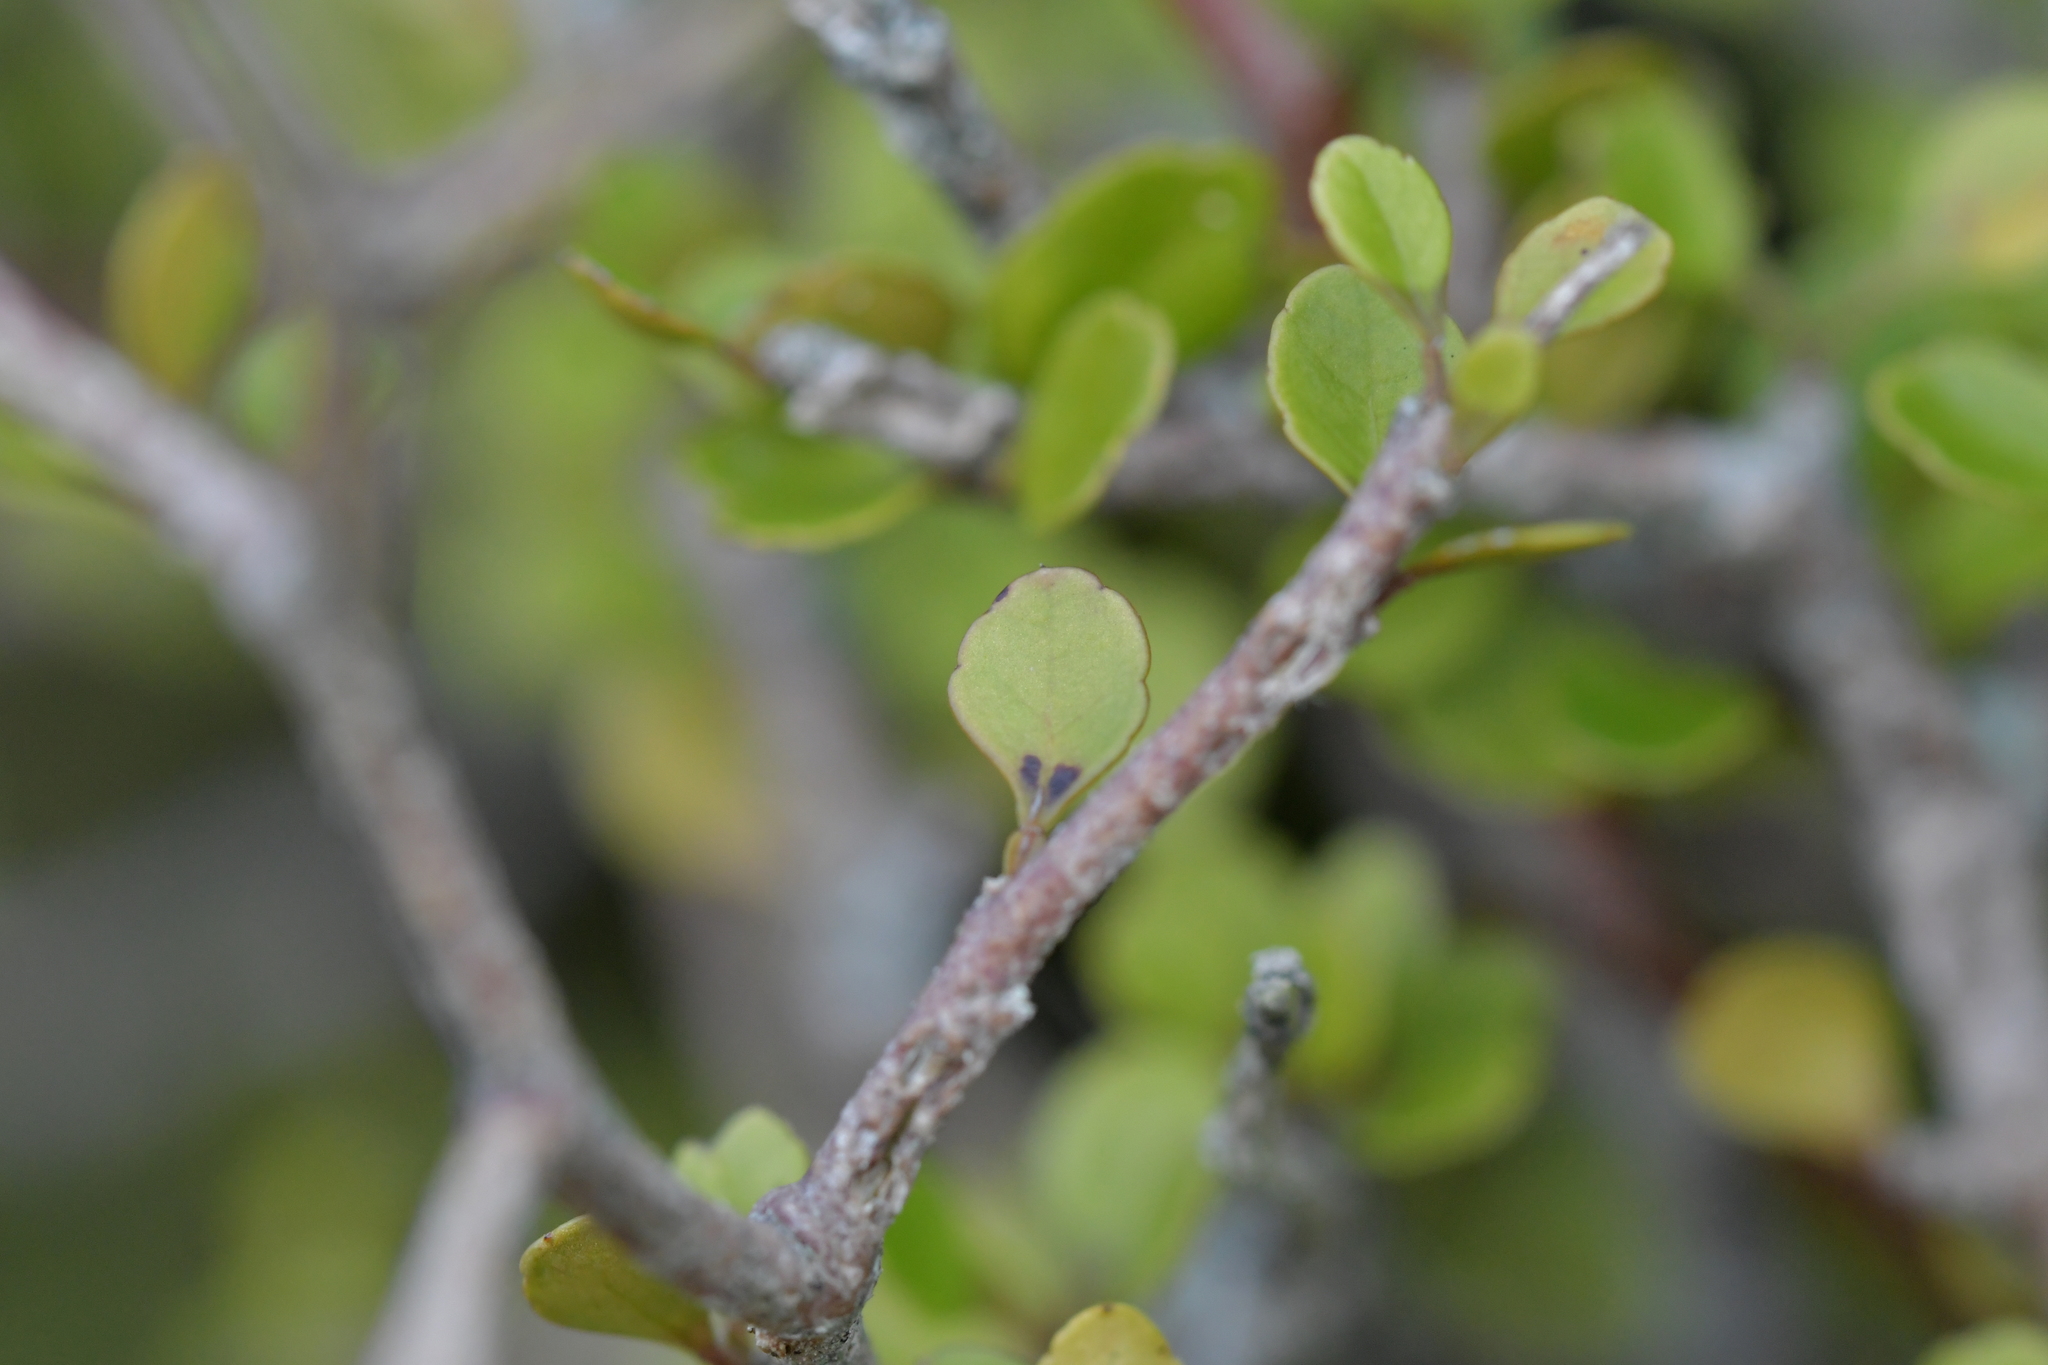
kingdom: Plantae
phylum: Tracheophyta
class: Magnoliopsida
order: Oxalidales
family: Elaeocarpaceae
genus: Aristotelia
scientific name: Aristotelia fruticosa
